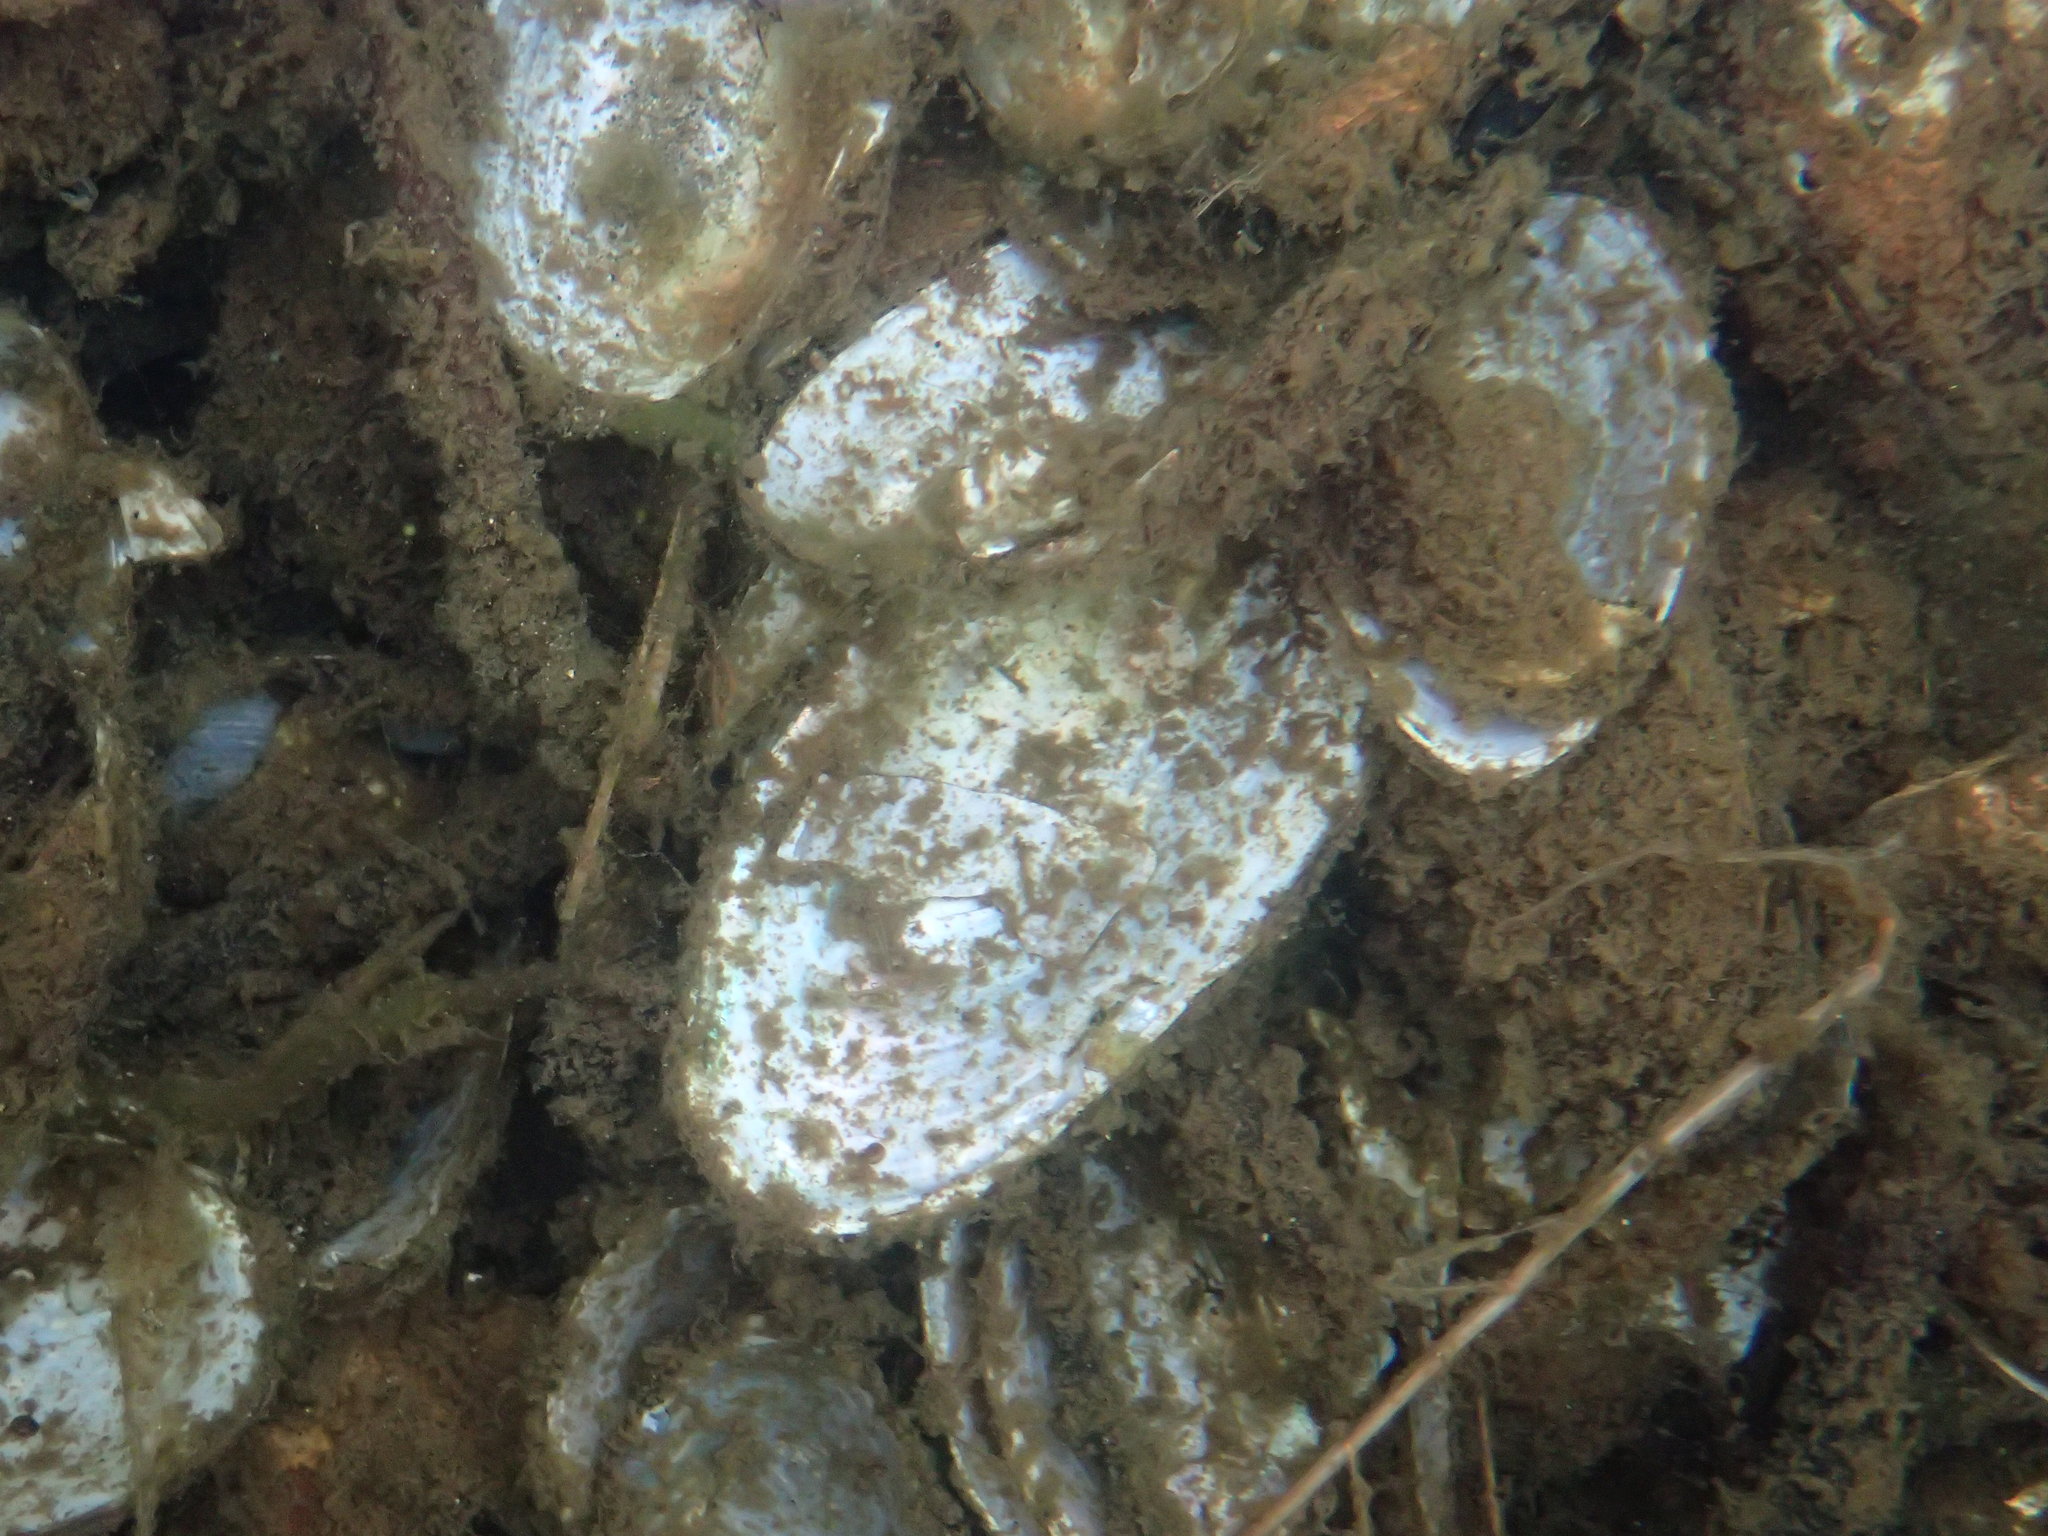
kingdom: Animalia
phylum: Mollusca
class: Bivalvia
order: Unionida
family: Unionidae
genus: Beringiana
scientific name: Beringiana beringiana
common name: Yukon floater
